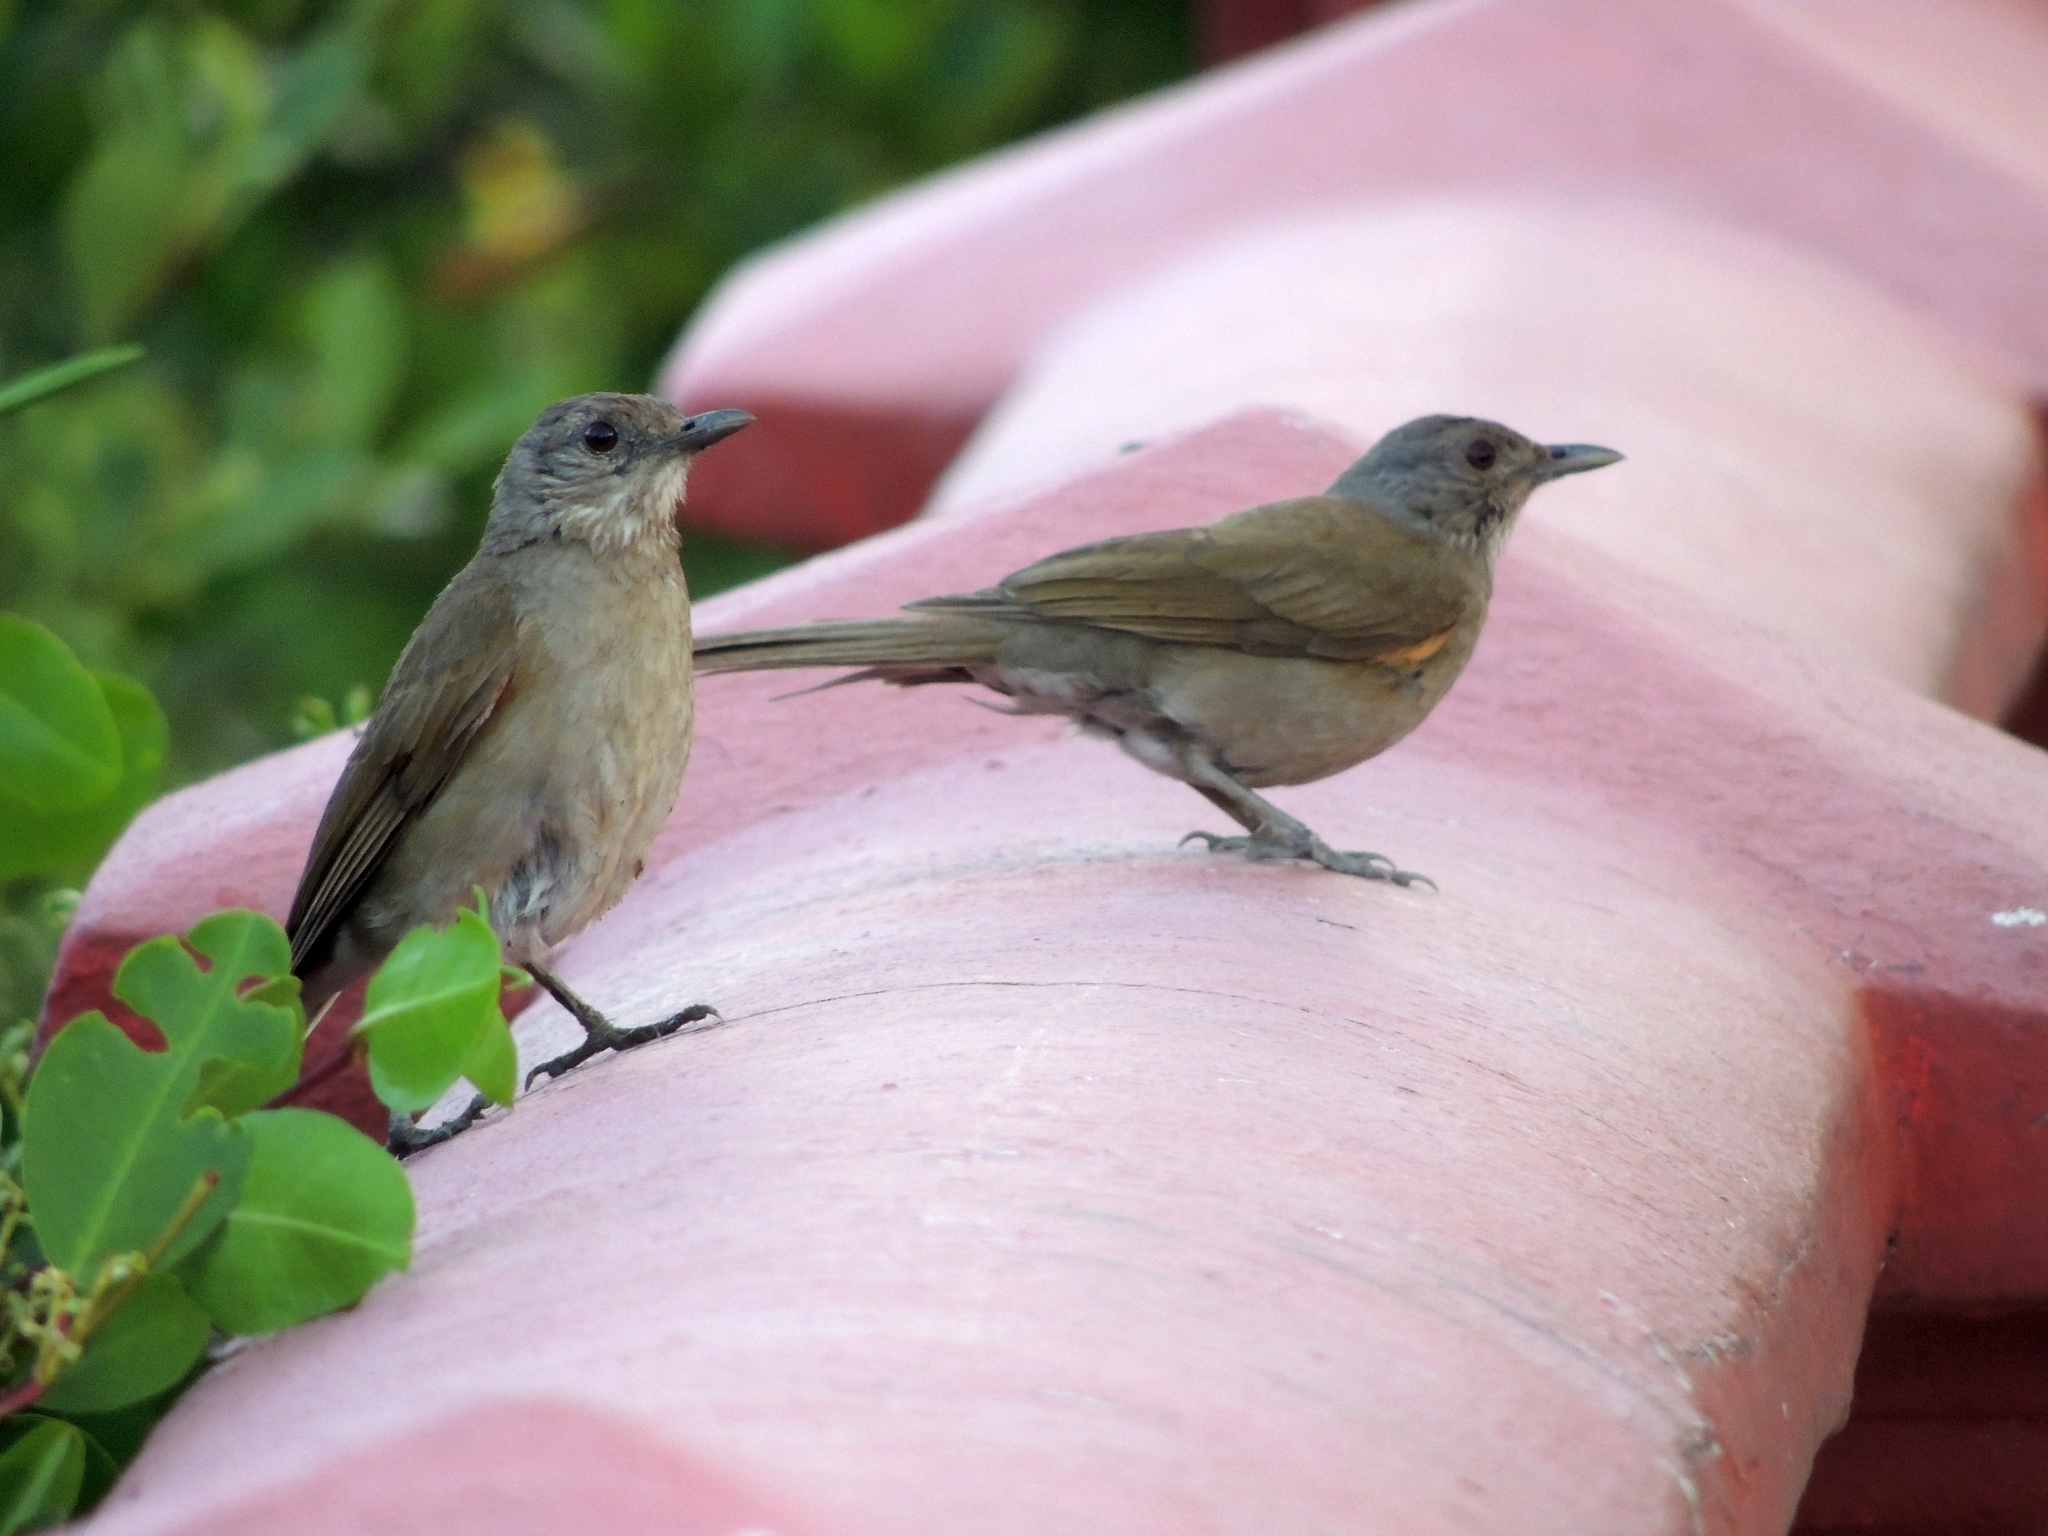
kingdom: Animalia
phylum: Chordata
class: Aves
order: Passeriformes
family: Turdidae
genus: Turdus
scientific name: Turdus leucomelas
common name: Pale-breasted thrush
